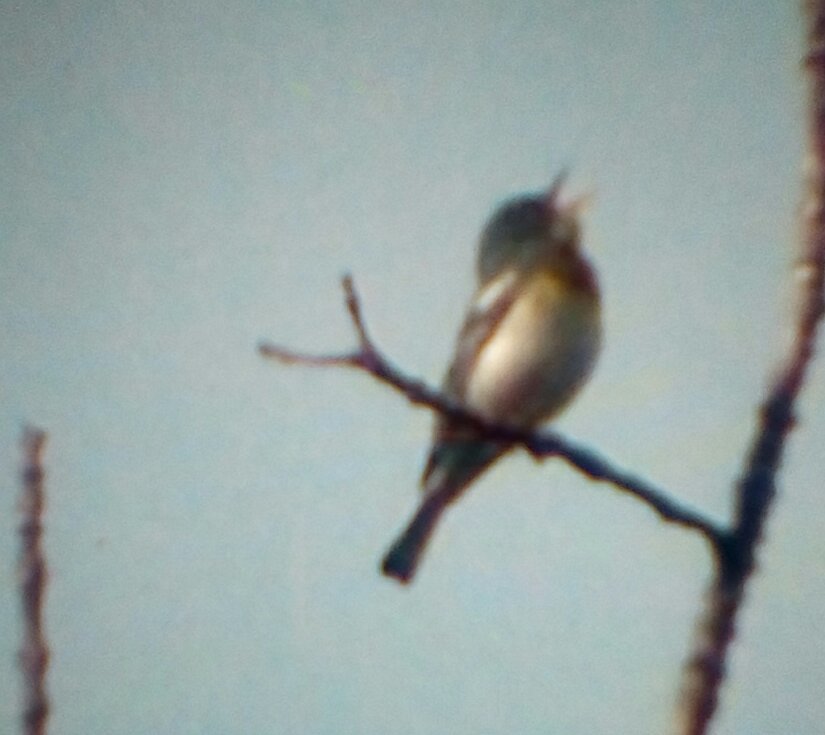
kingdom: Animalia
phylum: Chordata
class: Aves
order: Passeriformes
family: Parulidae
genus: Setophaga
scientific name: Setophaga americana
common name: Northern parula
